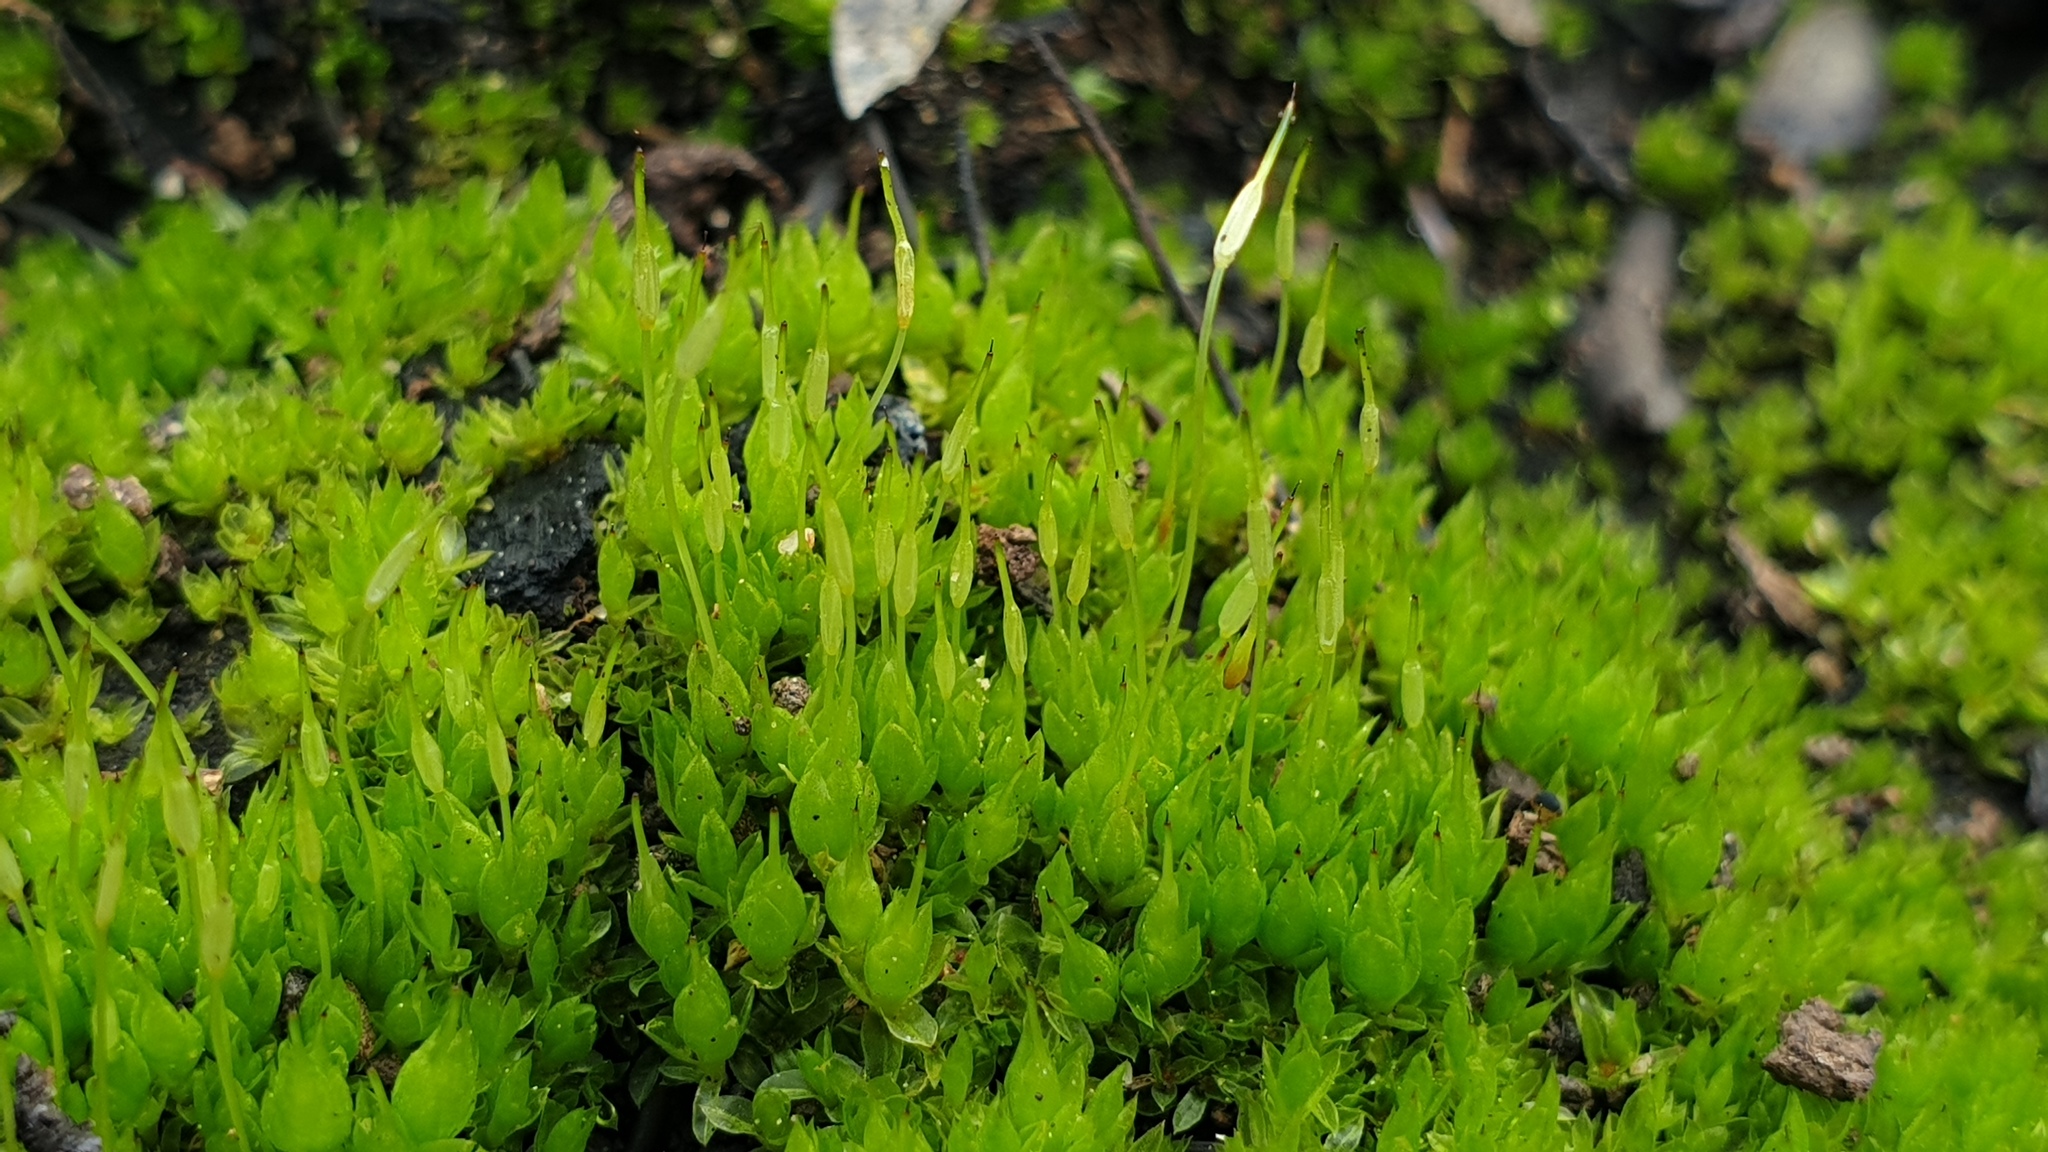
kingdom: Plantae
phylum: Bryophyta
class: Bryopsida
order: Funariales
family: Funariaceae
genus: Funaria
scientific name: Funaria hygrometrica
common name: Common cord moss
